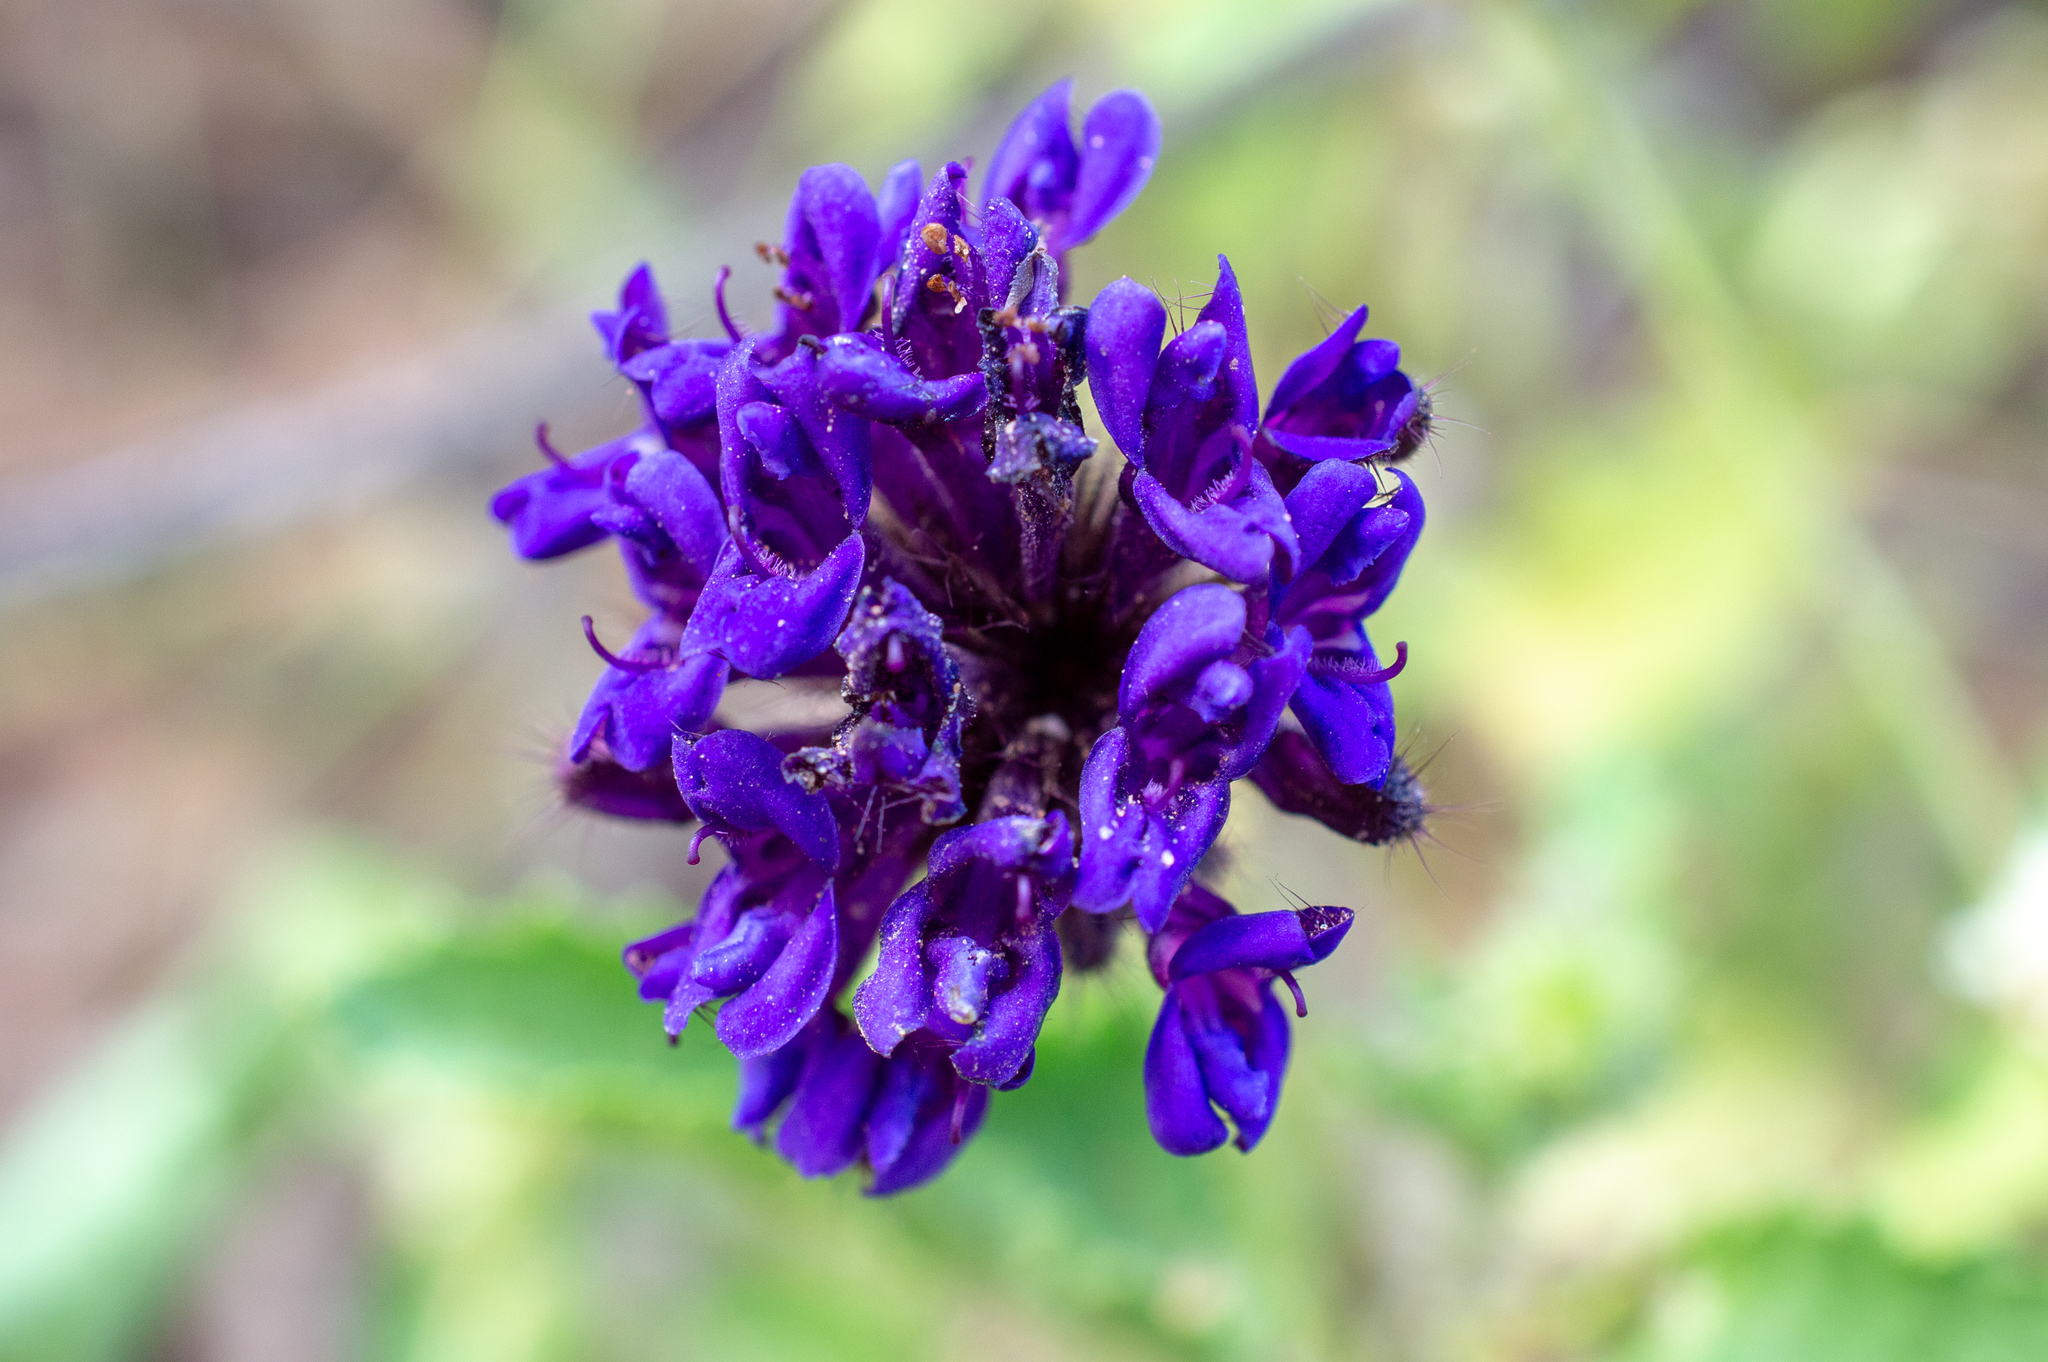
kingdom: Plantae
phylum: Tracheophyta
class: Magnoliopsida
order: Lamiales
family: Lamiaceae
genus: Rhaphiodon
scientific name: Rhaphiodon echinus
